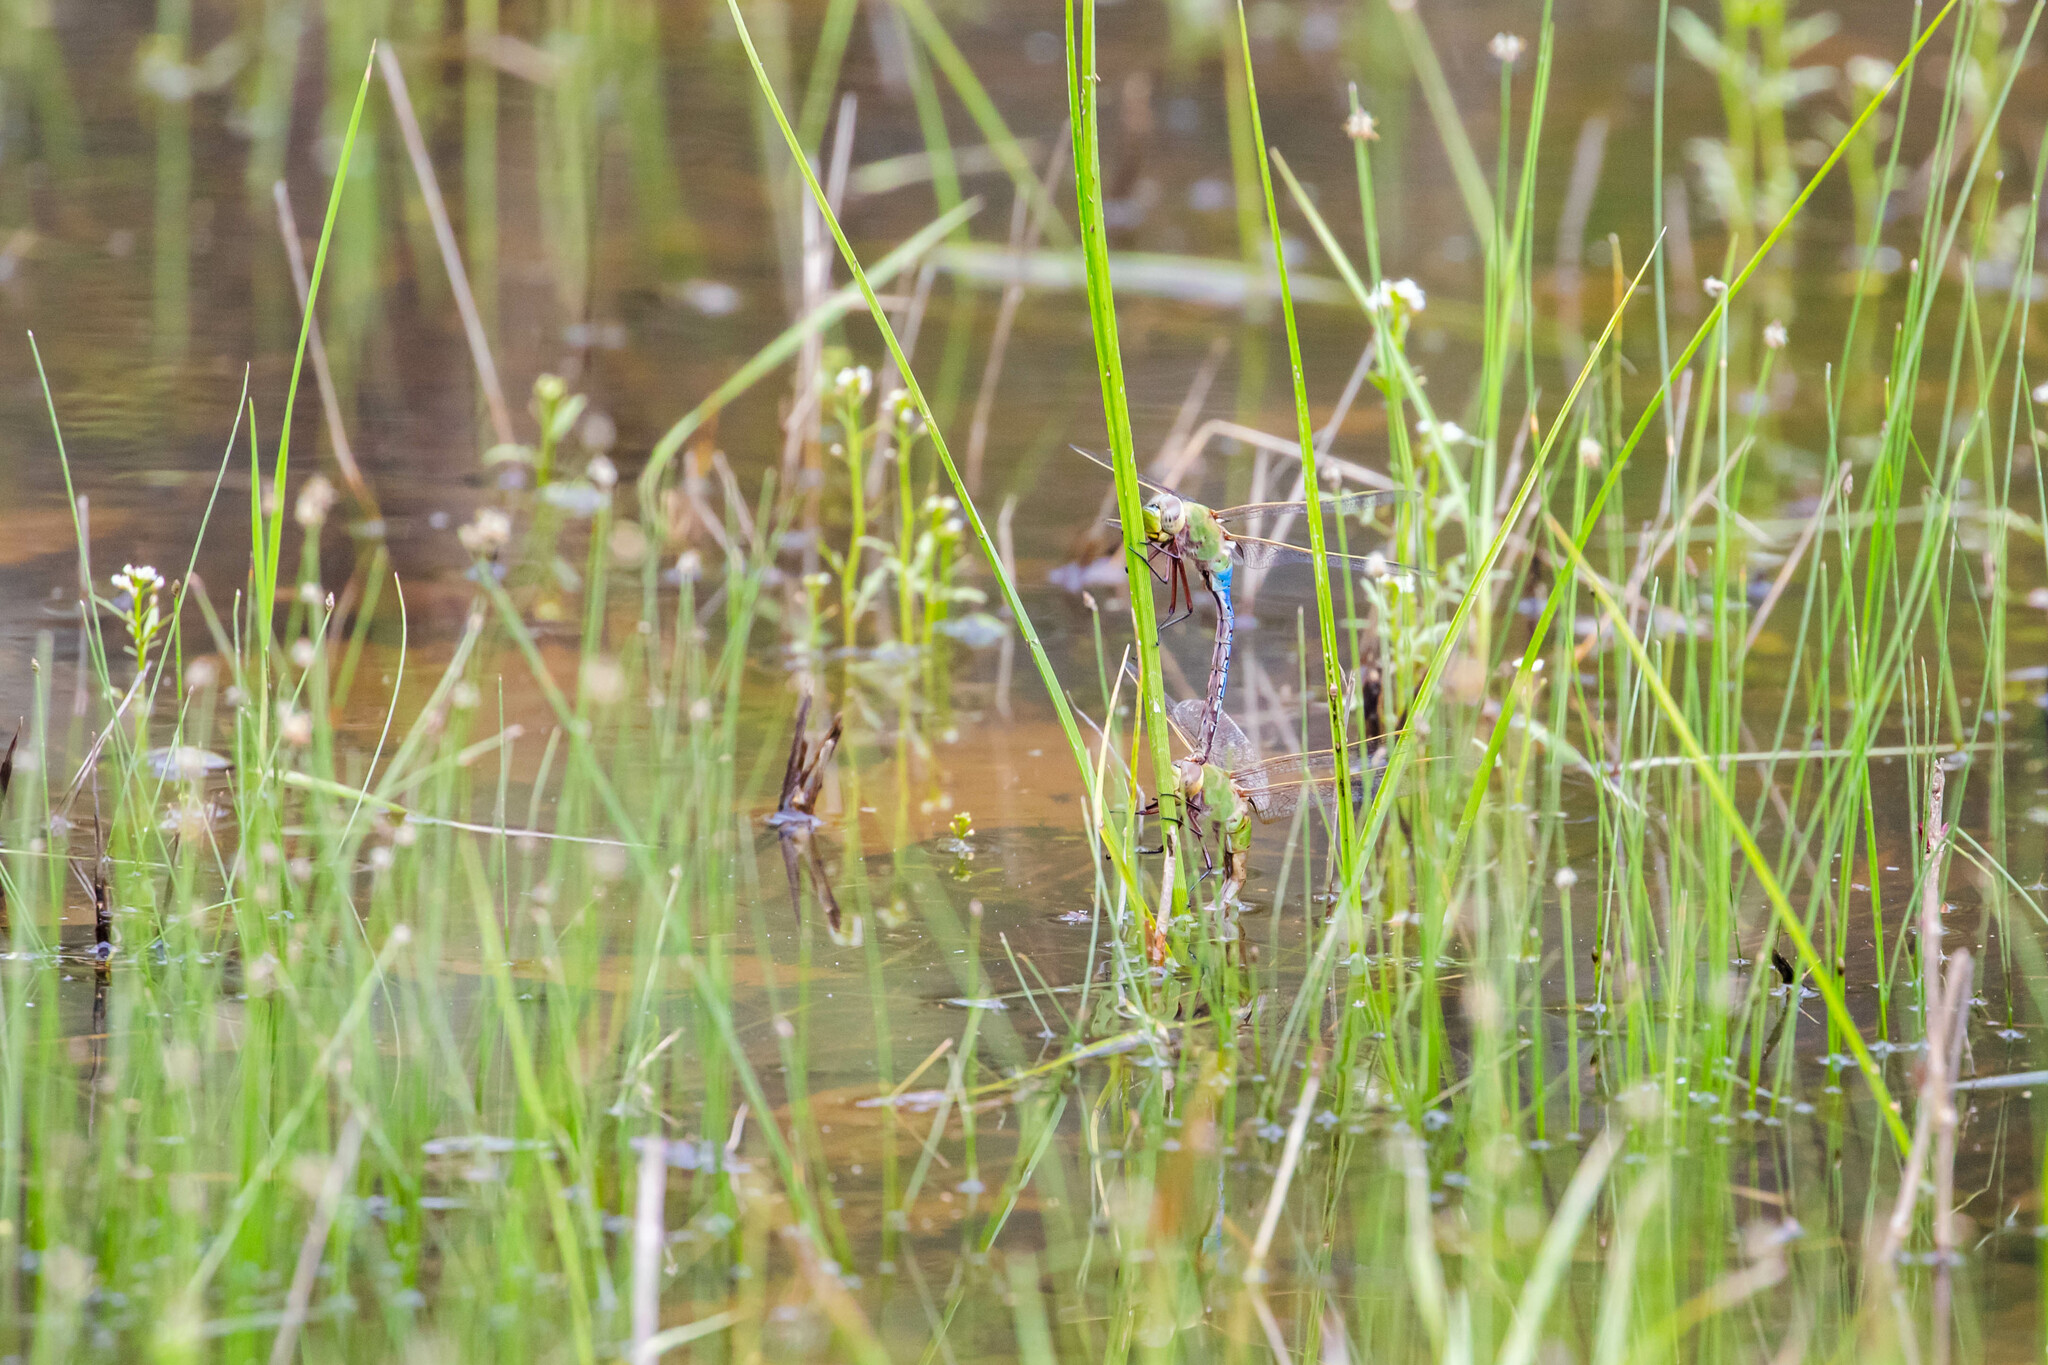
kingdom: Animalia
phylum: Arthropoda
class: Insecta
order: Odonata
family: Aeshnidae
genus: Anax
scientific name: Anax junius
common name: Common green darner
